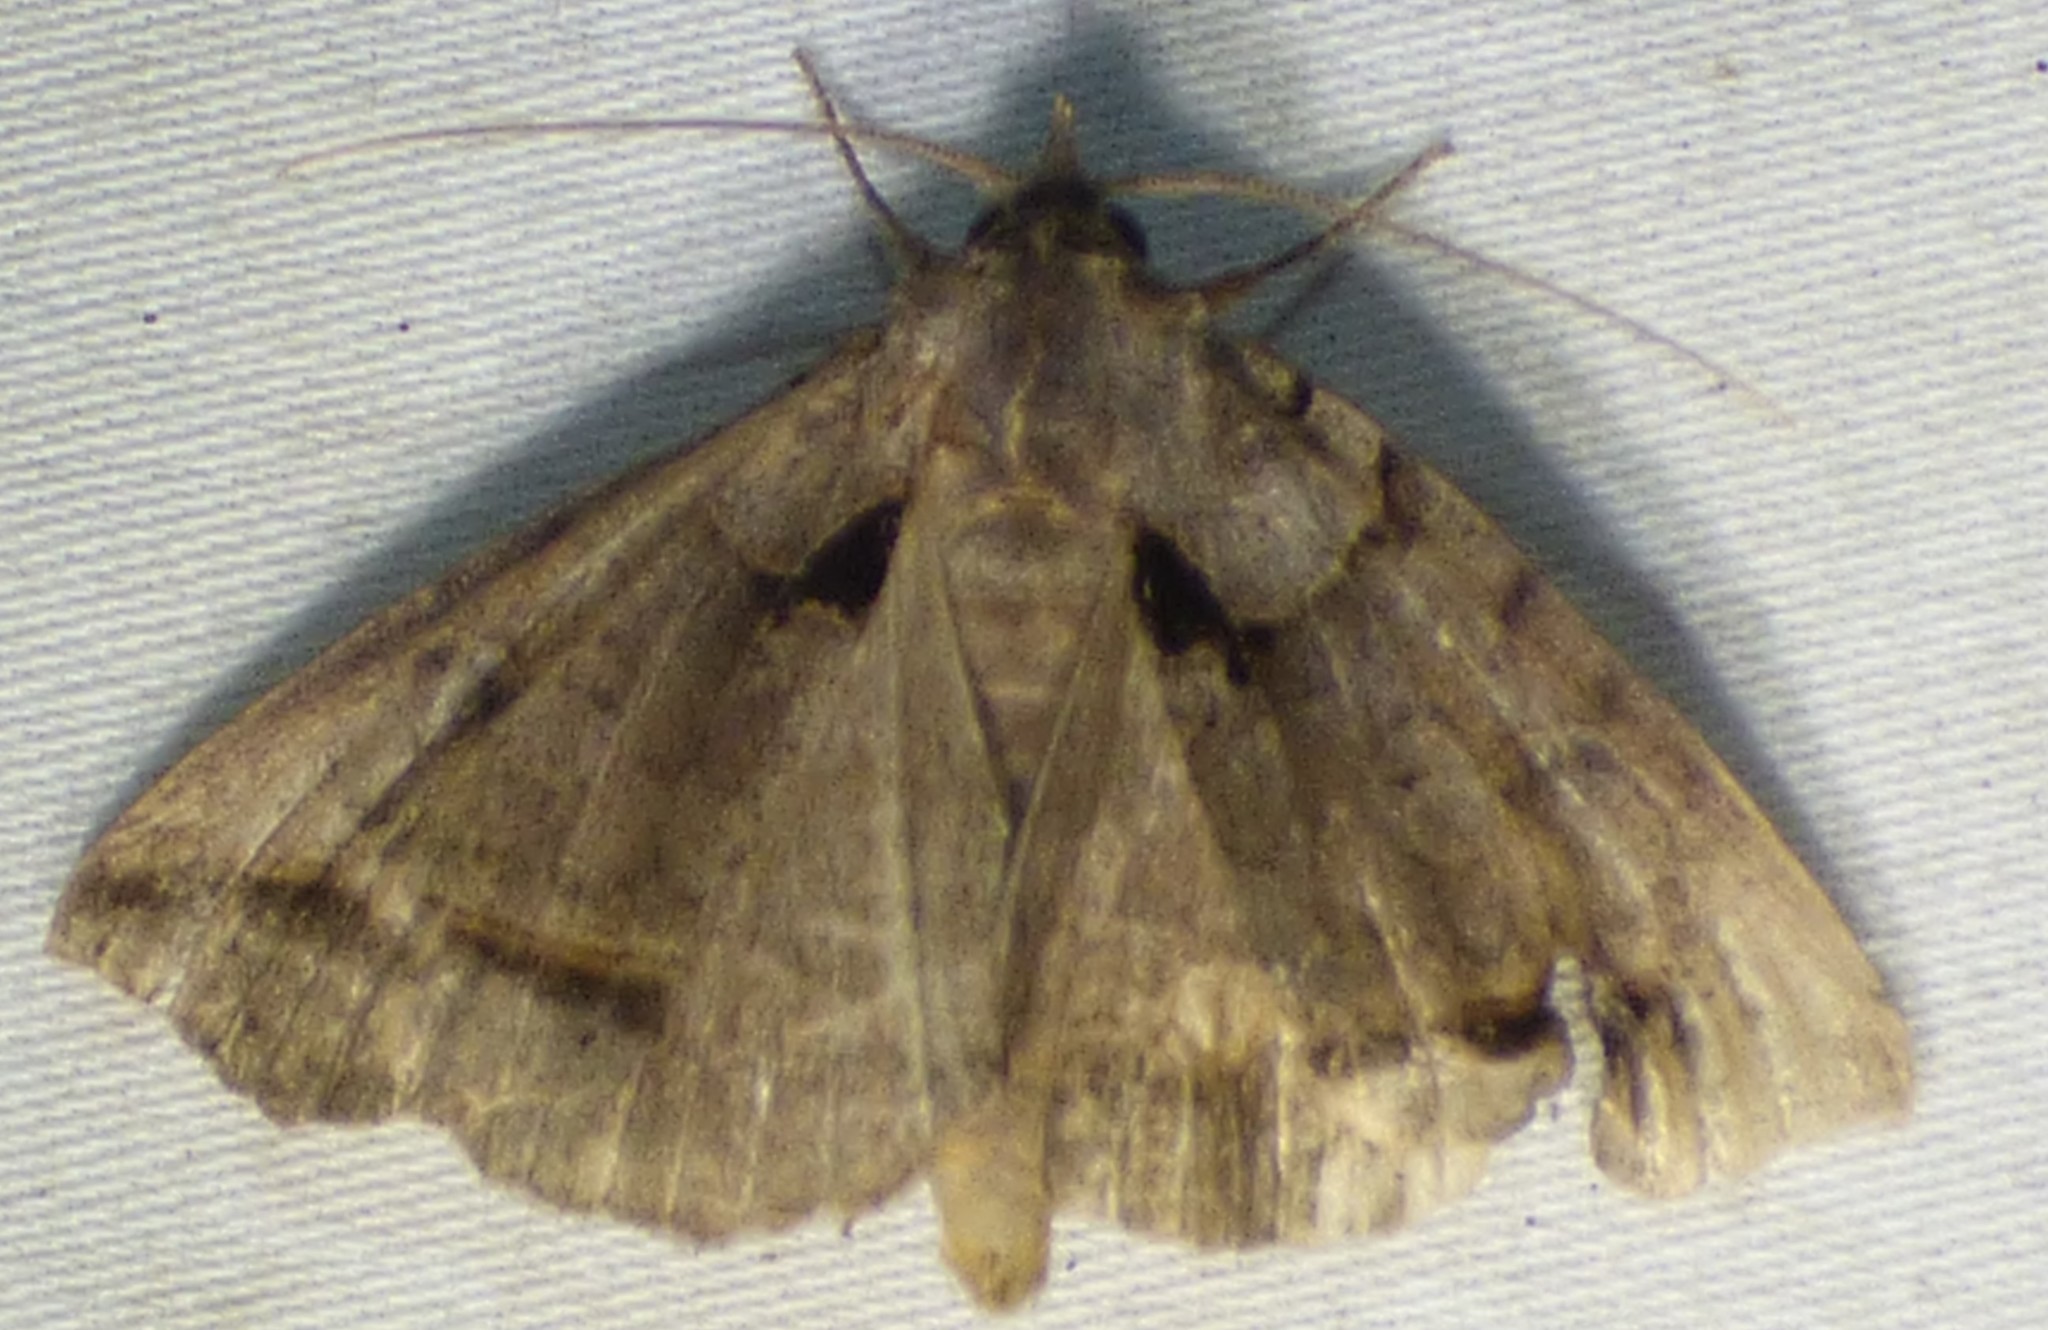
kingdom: Animalia
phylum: Arthropoda
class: Insecta
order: Lepidoptera
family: Erebidae
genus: Celiptera
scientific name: Celiptera frustulum
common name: Black bit moth
